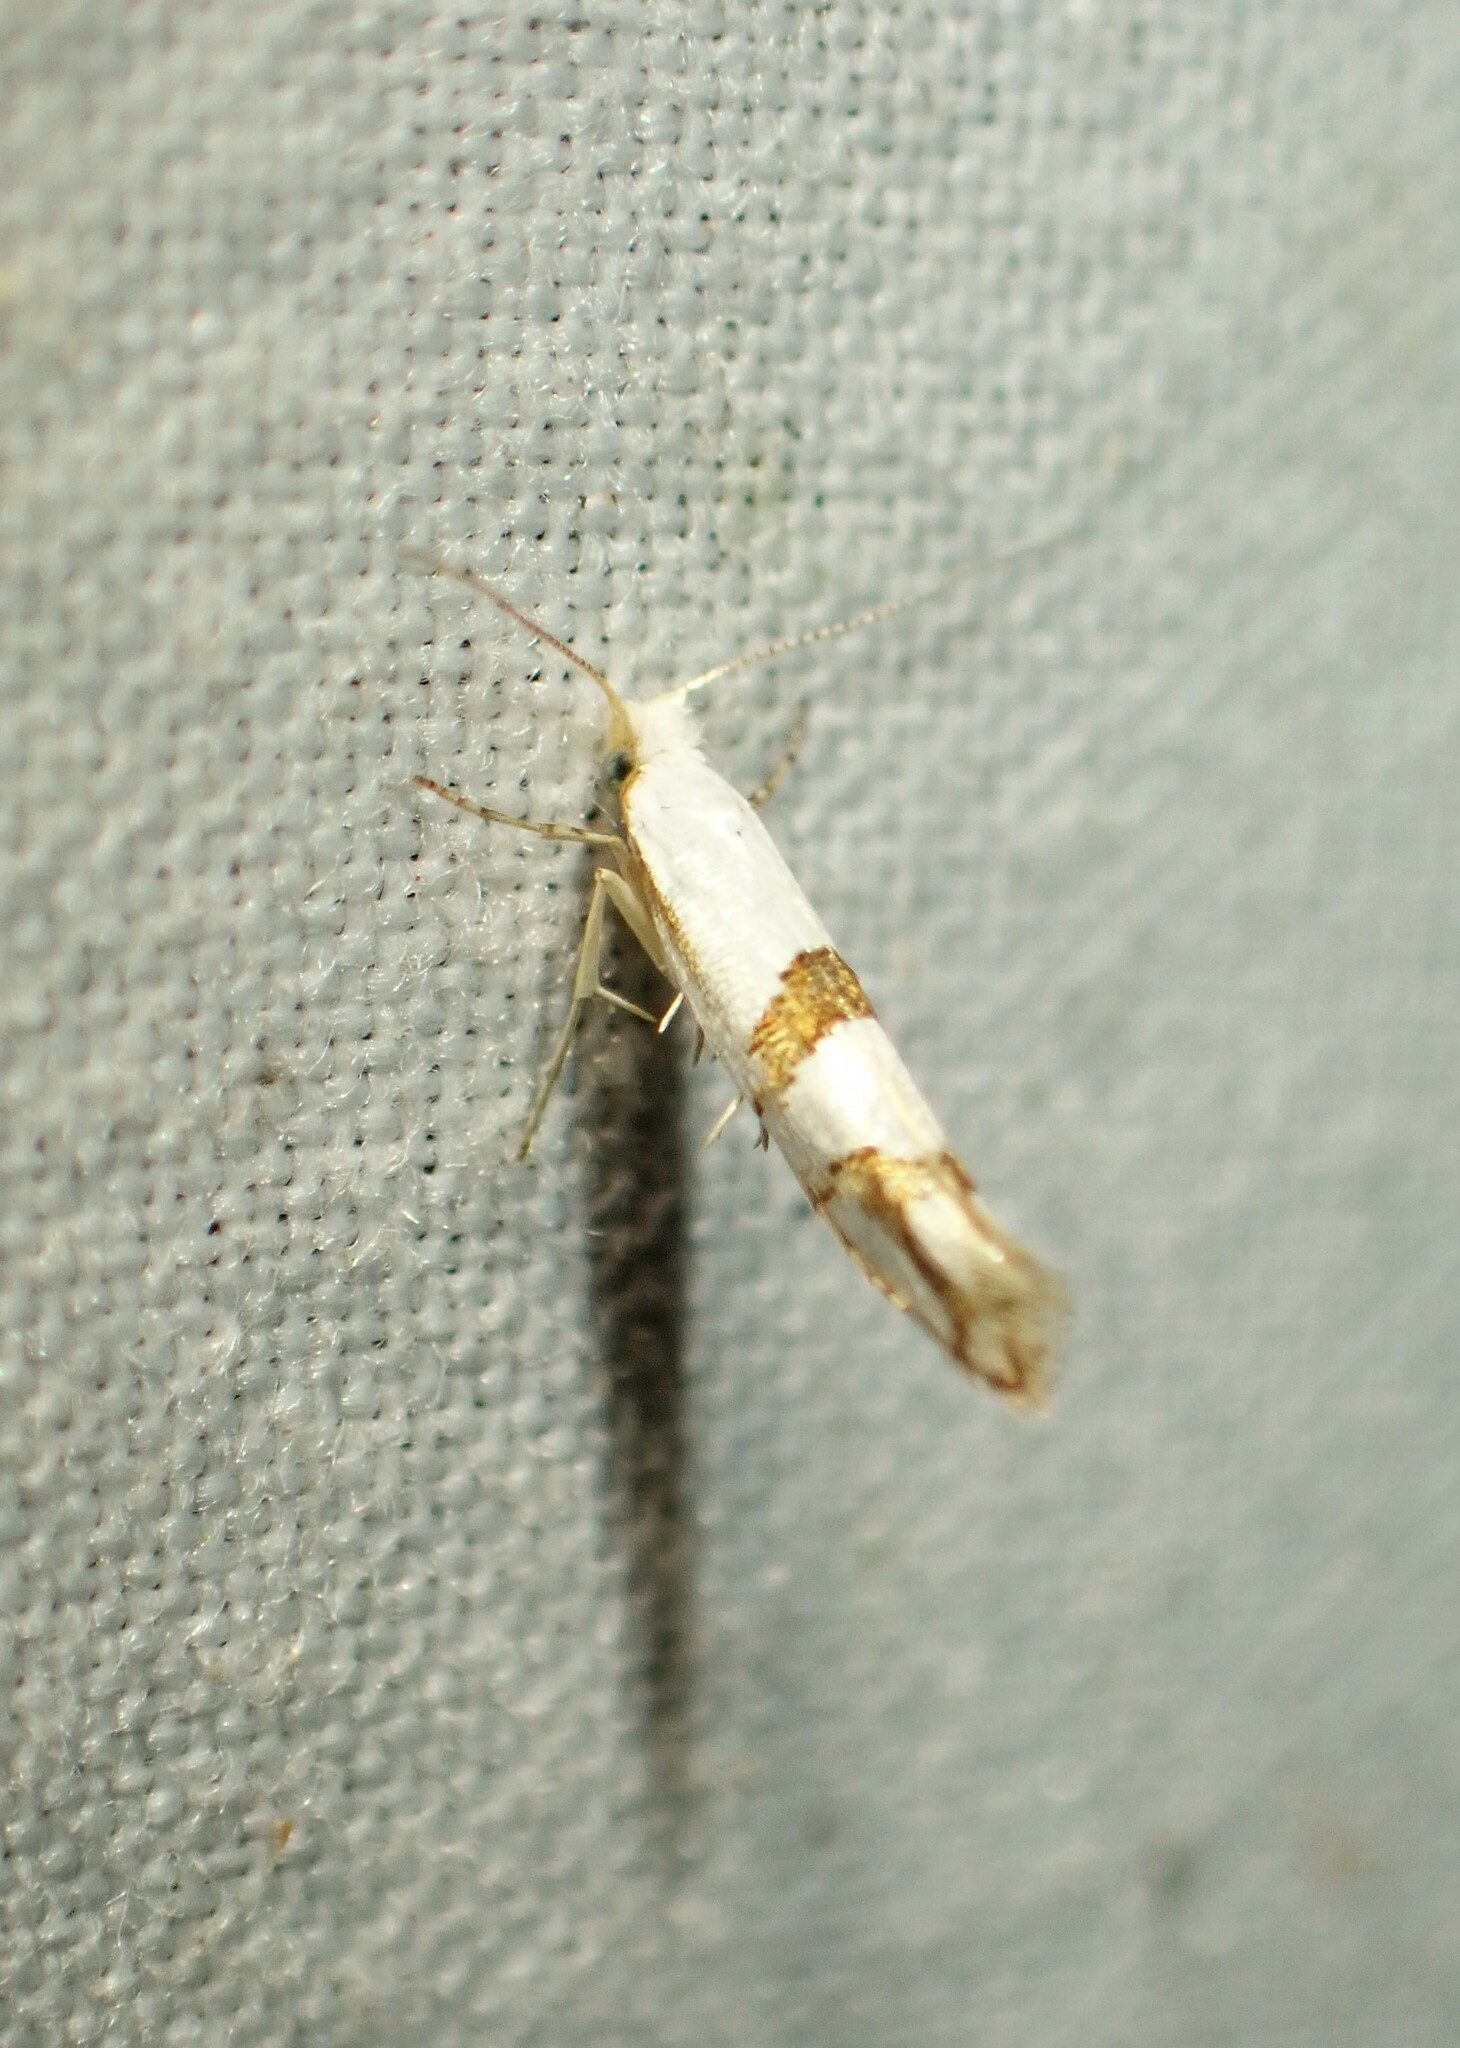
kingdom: Animalia
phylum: Arthropoda
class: Insecta
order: Lepidoptera
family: Argyresthiidae
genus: Argyresthia
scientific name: Argyresthia oreasella
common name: Cherry shoot borer moth
